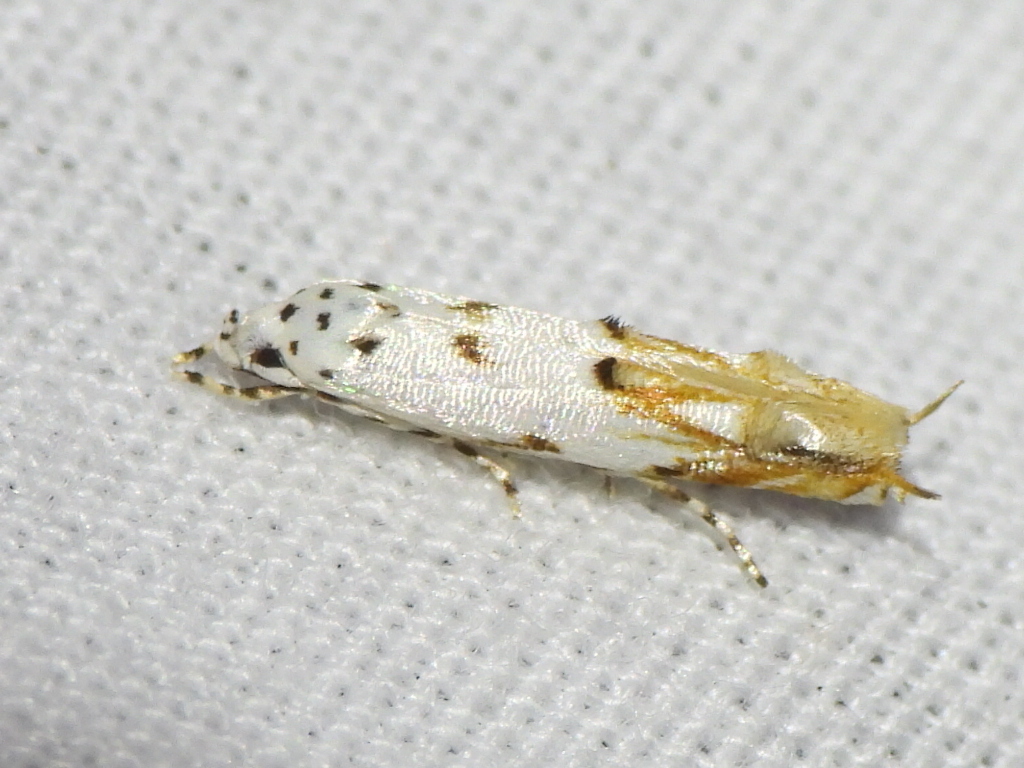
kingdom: Animalia
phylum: Arthropoda
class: Insecta
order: Lepidoptera
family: Momphidae
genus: Mompha
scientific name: Mompha eloisella
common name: Red-streaked mompha moth
